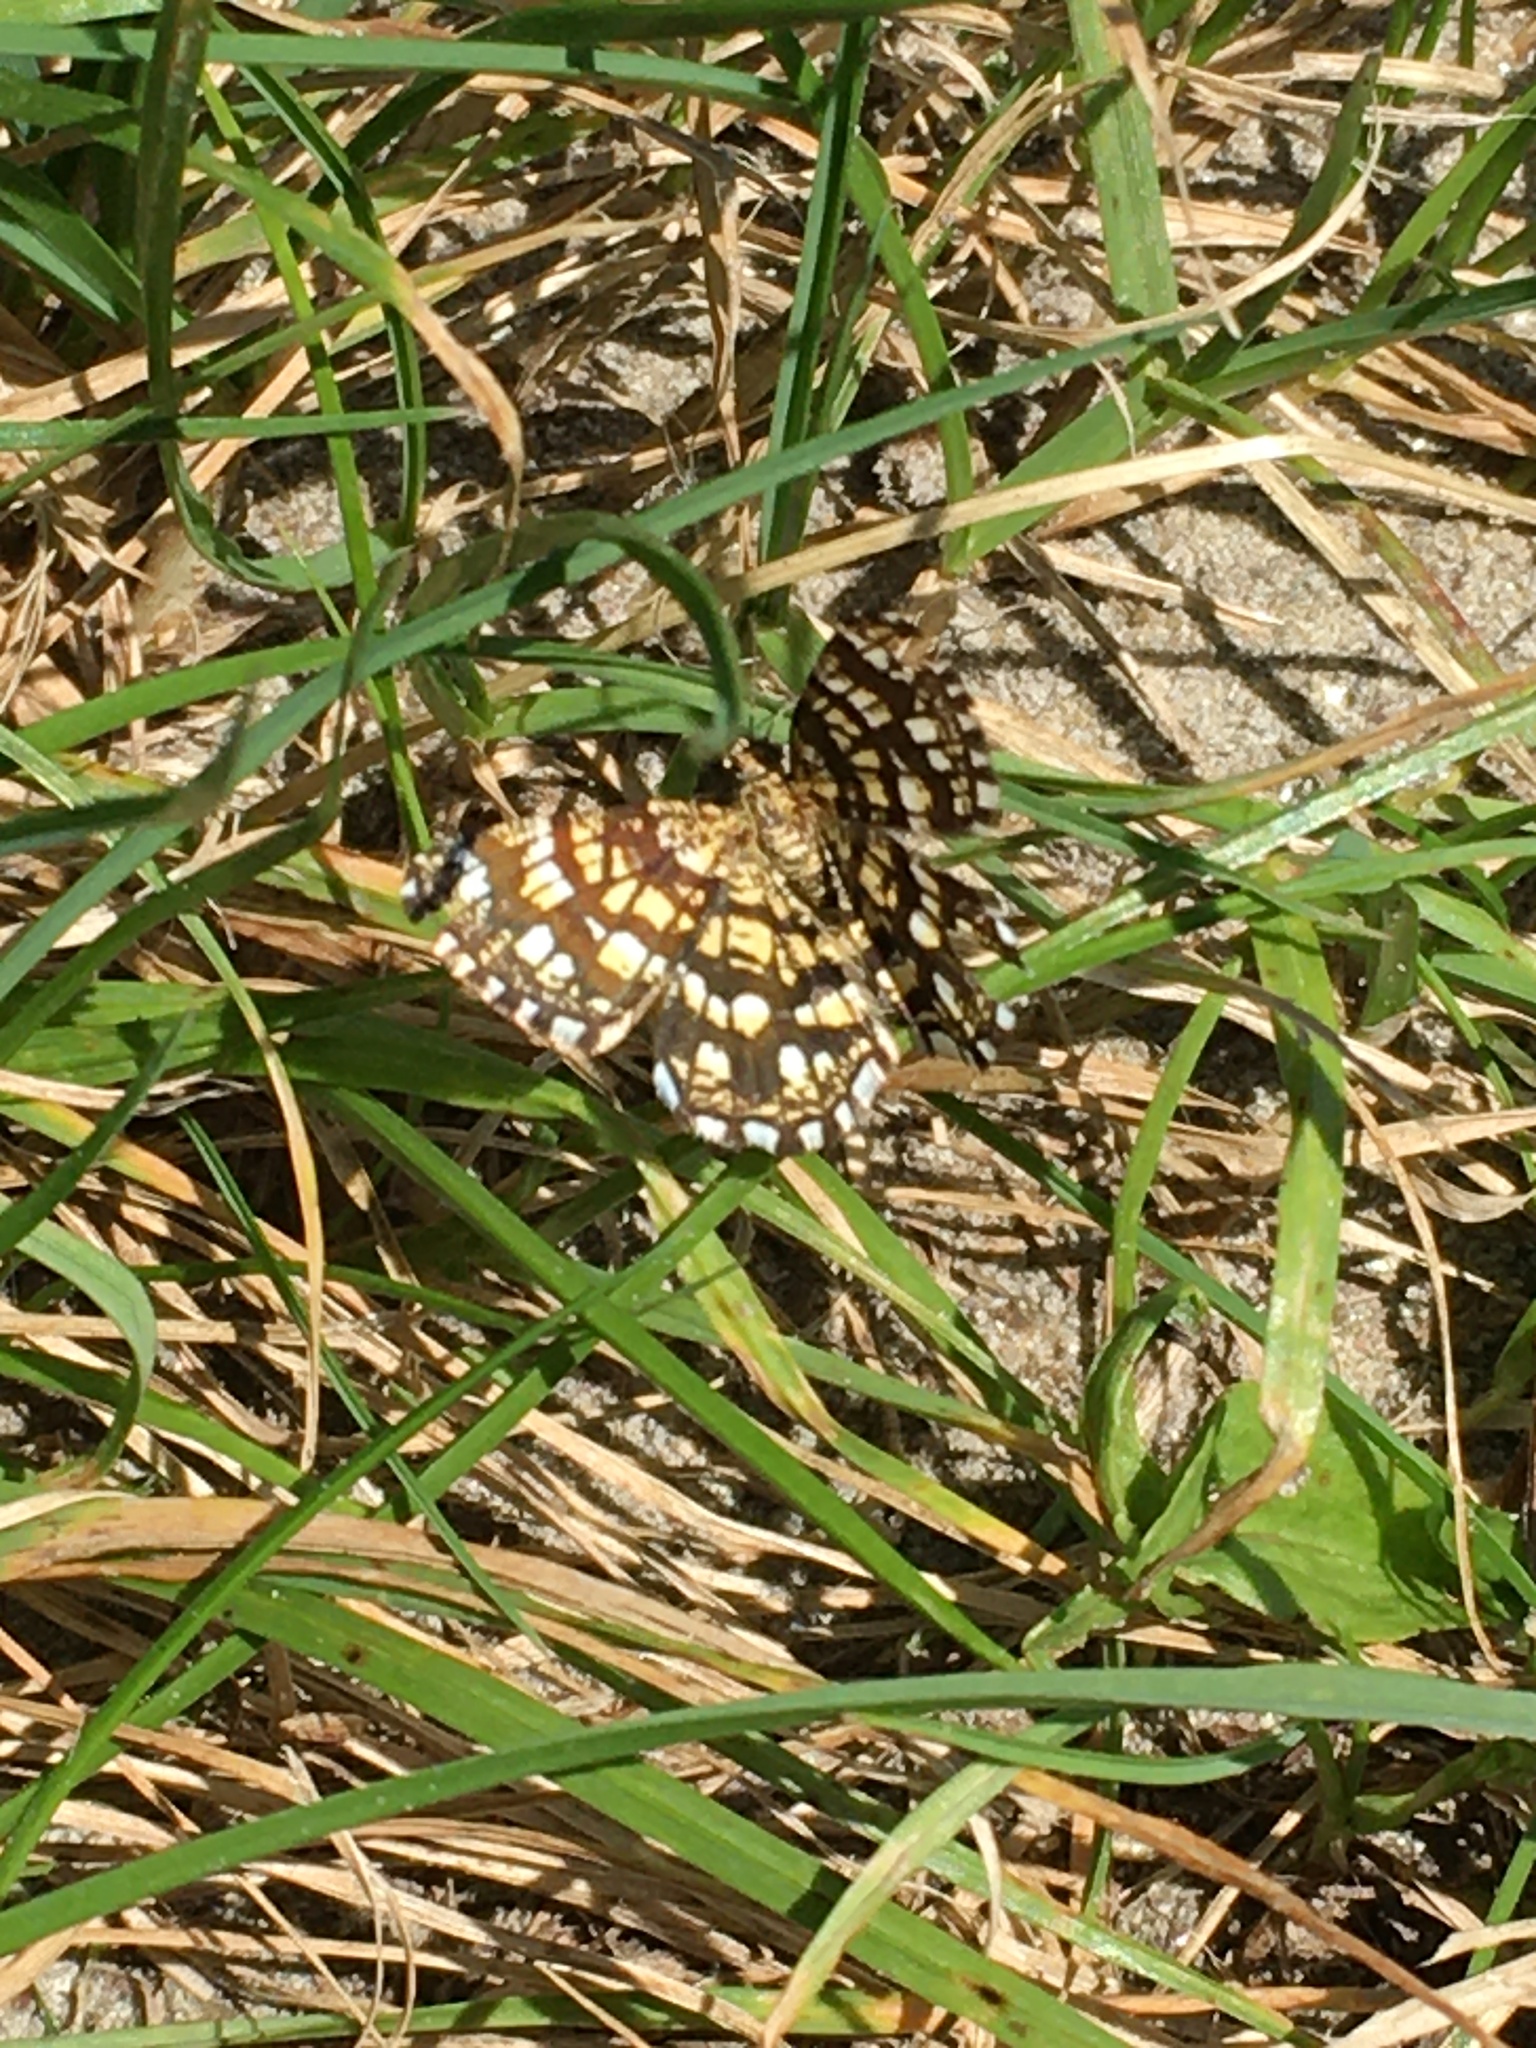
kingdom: Animalia
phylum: Arthropoda
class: Insecta
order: Lepidoptera
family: Geometridae
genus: Chiasmia
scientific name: Chiasmia clathrata
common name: Latticed heath
